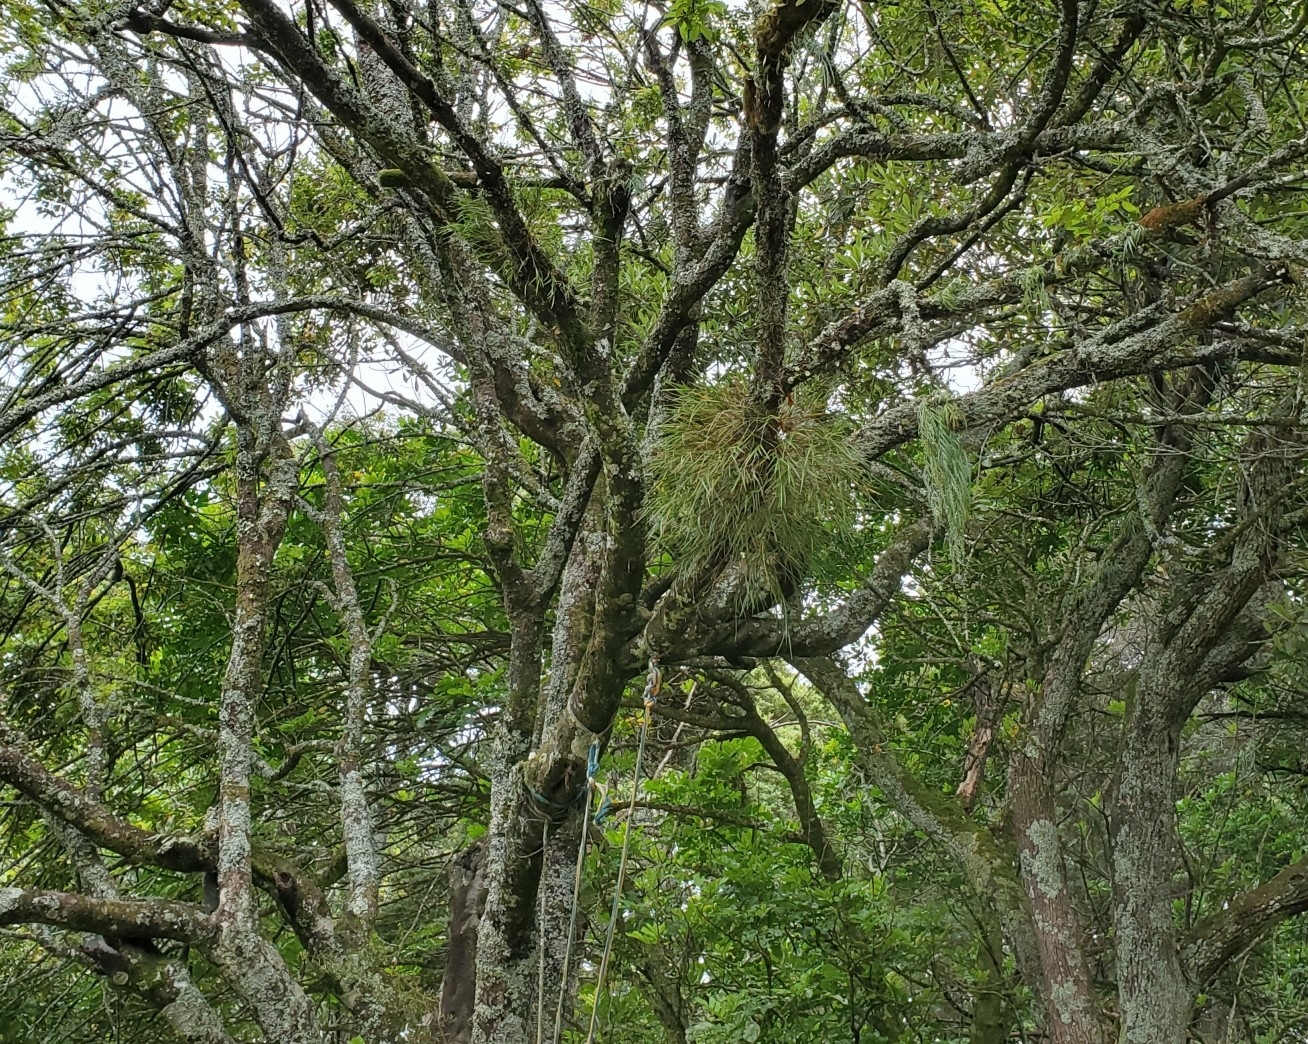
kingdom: Plantae
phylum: Tracheophyta
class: Liliopsida
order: Asparagales
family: Orchidaceae
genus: Earina
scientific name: Earina mucronata
